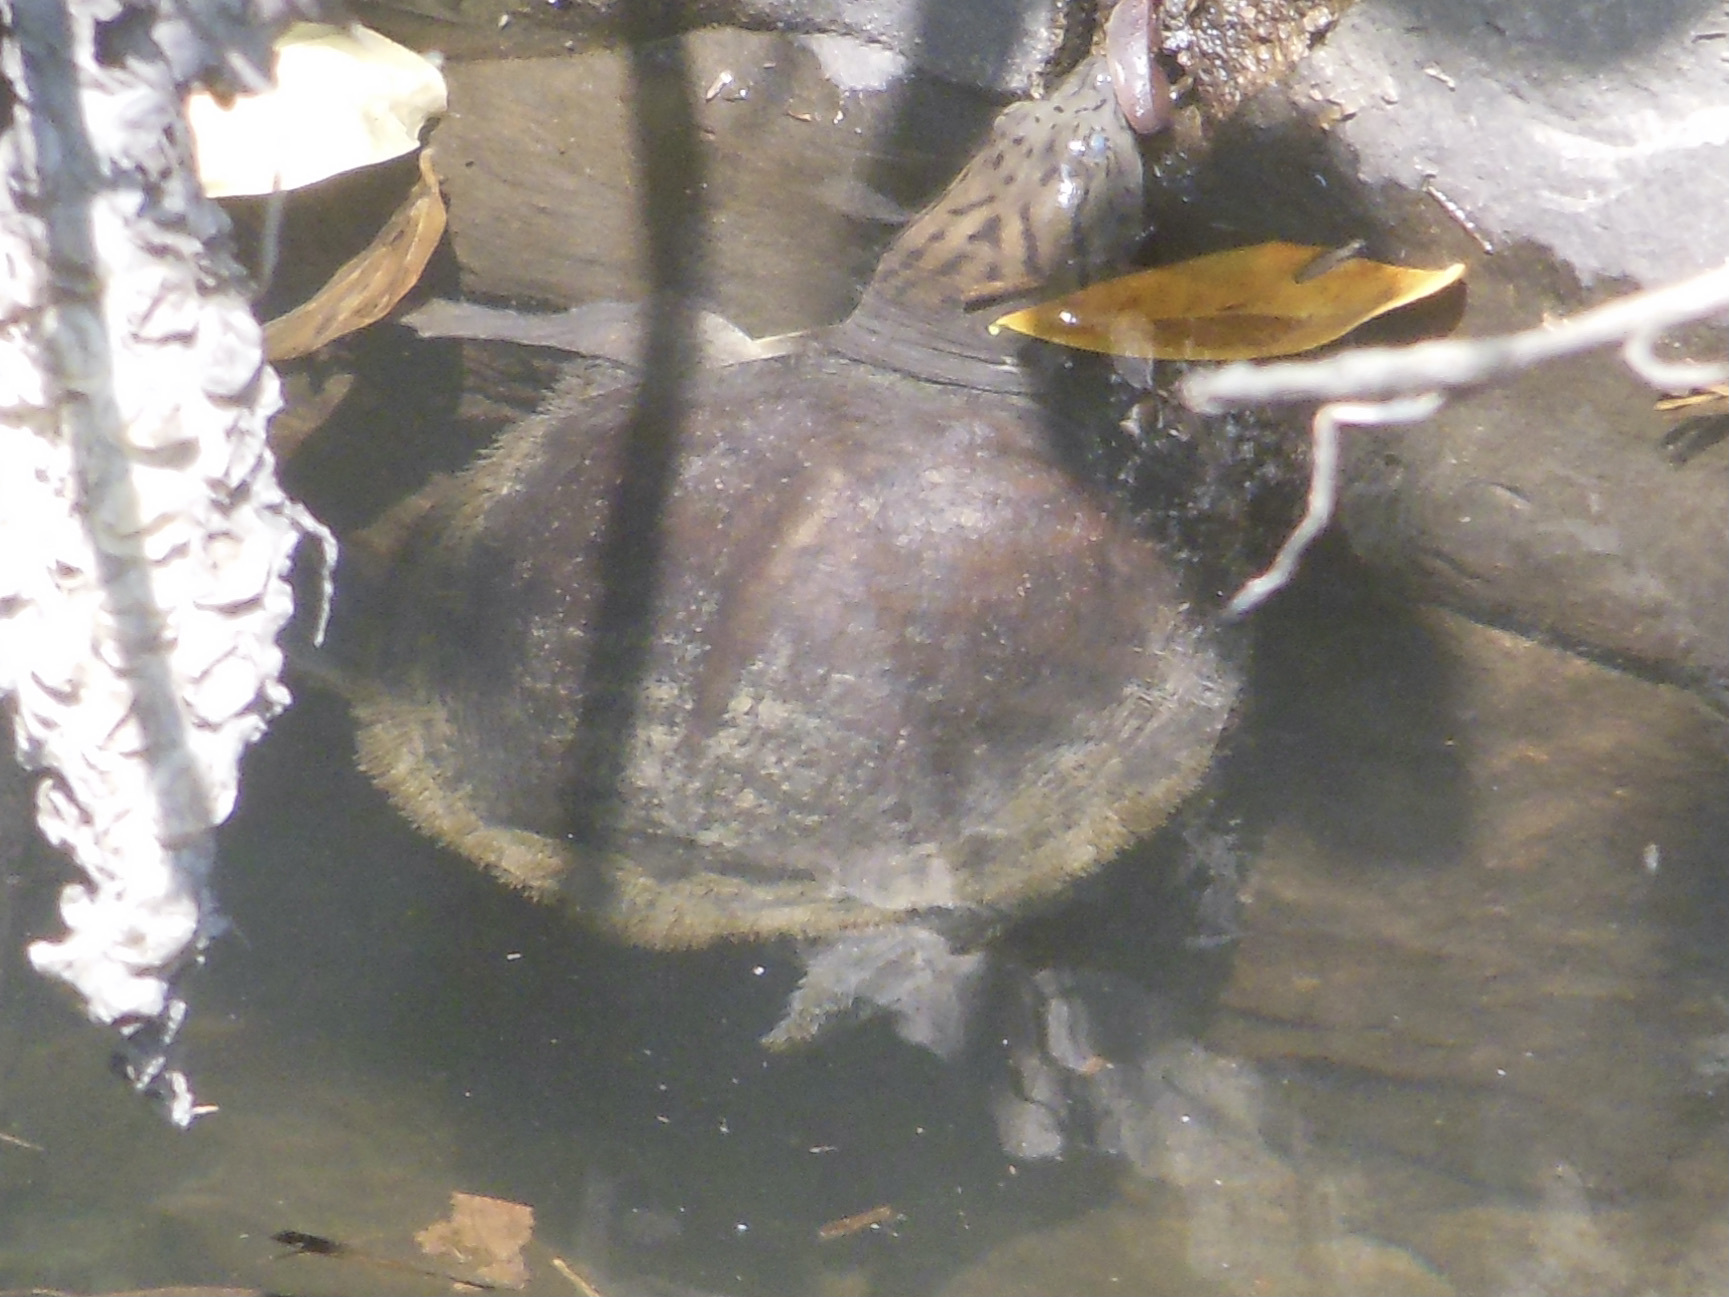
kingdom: Animalia
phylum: Chordata
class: Testudines
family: Trionychidae
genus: Lissemys
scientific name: Lissemys punctata
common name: Indian flap-shelled turtle
